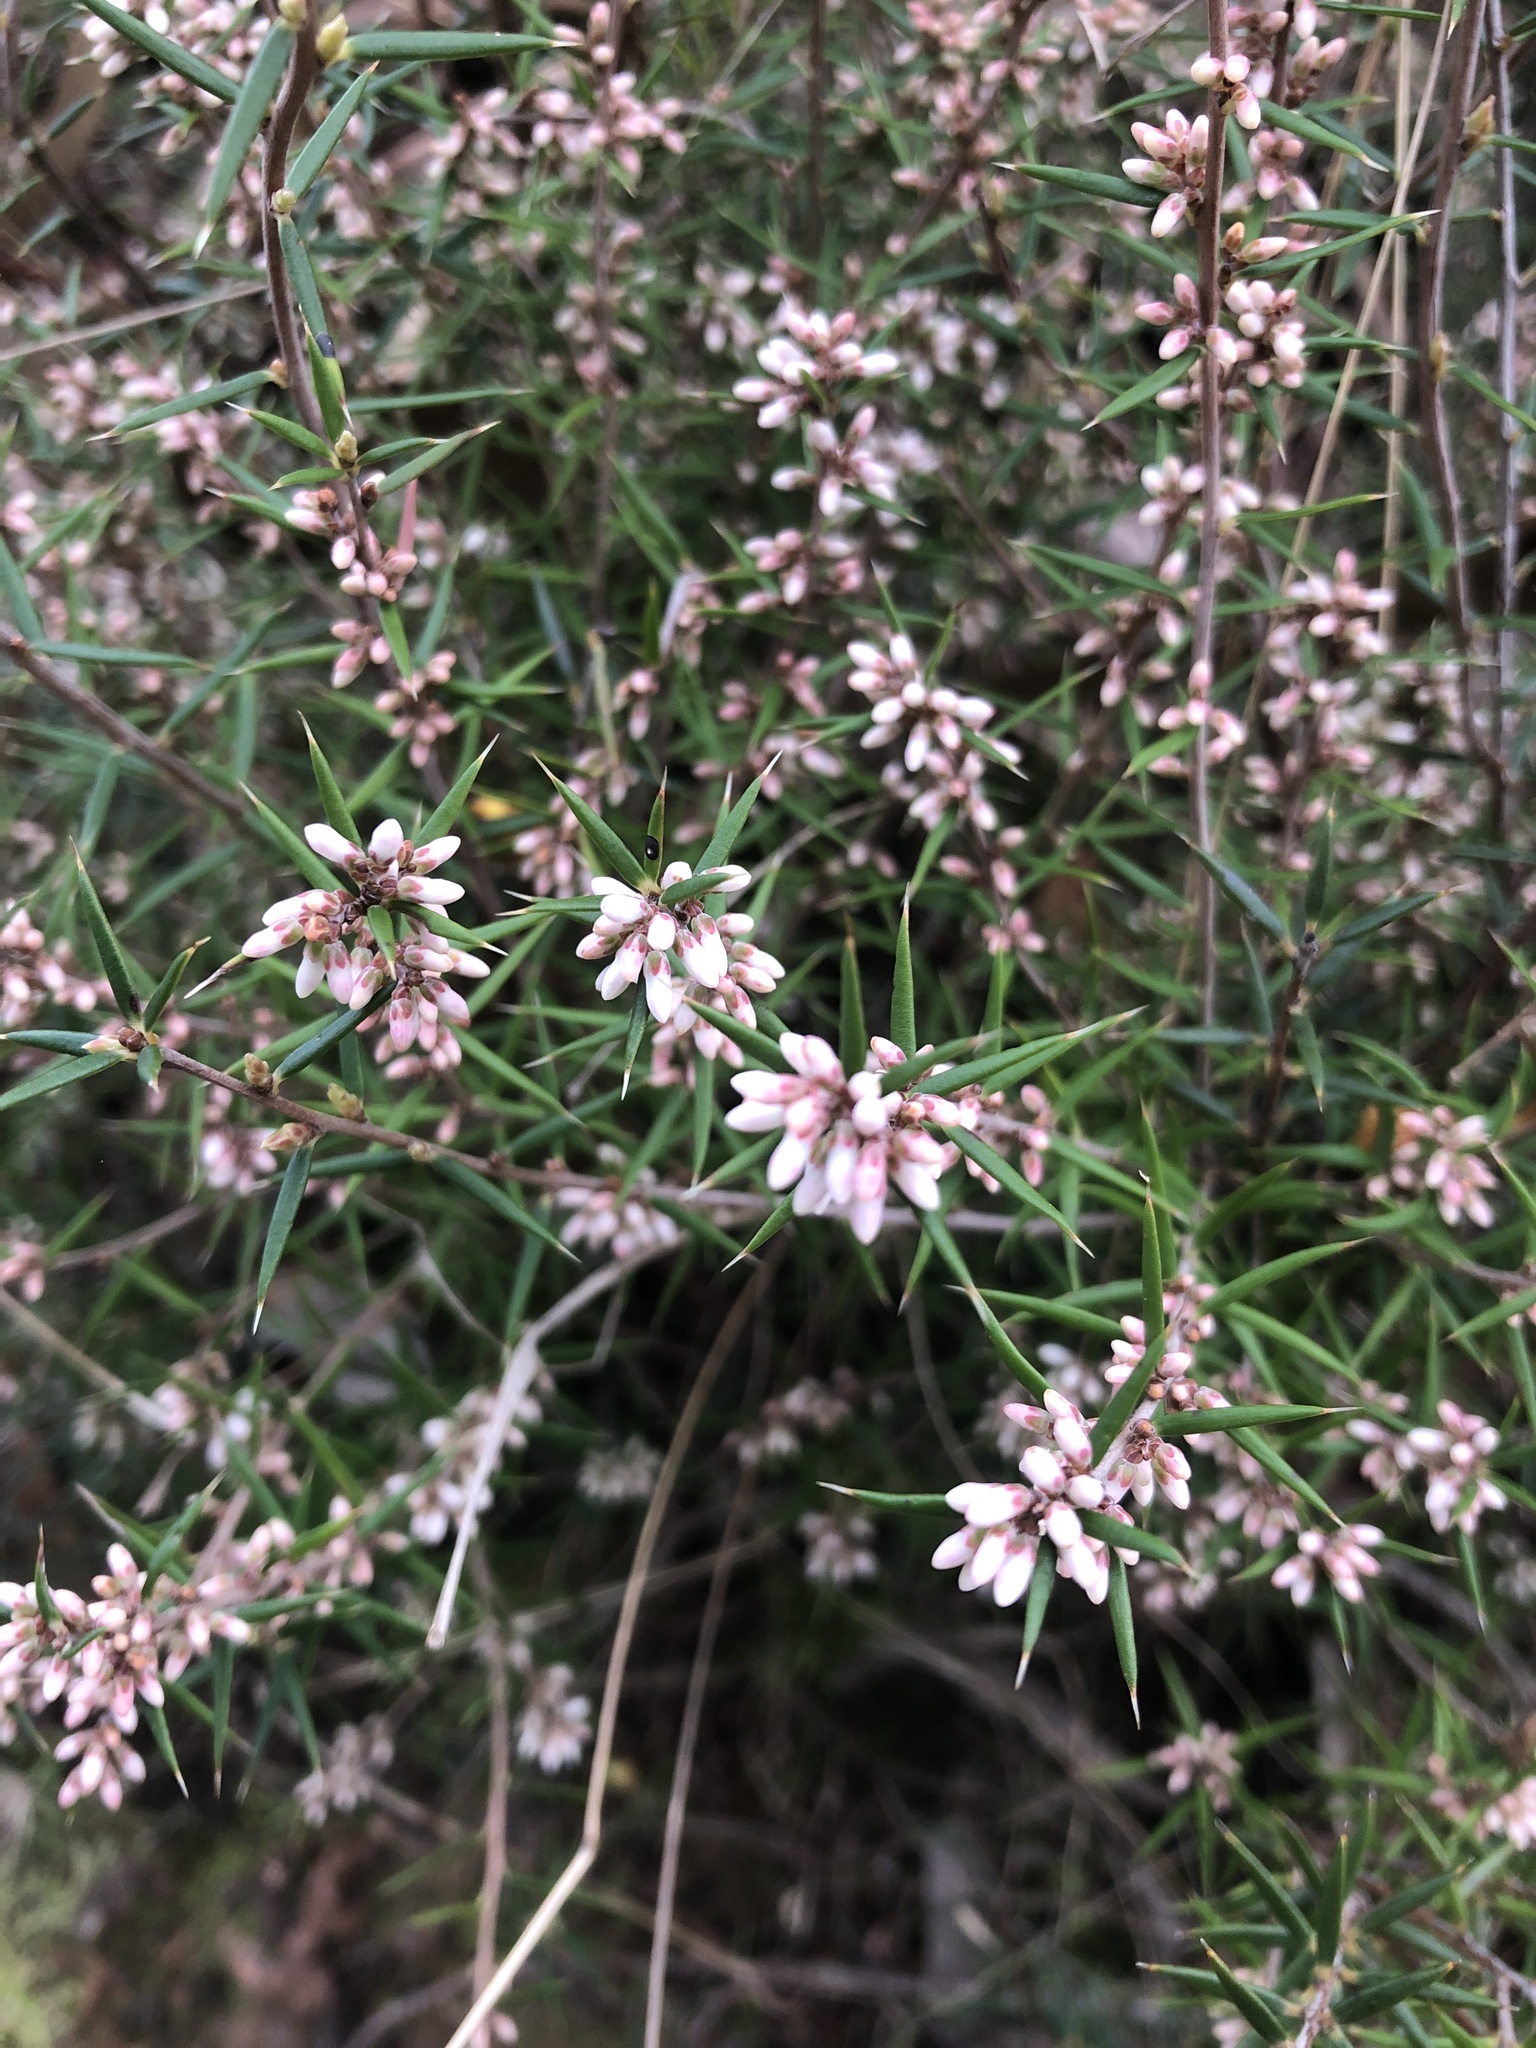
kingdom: Plantae
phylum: Tracheophyta
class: Magnoliopsida
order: Ericales
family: Ericaceae
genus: Lissanthe
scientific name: Lissanthe strigosa
